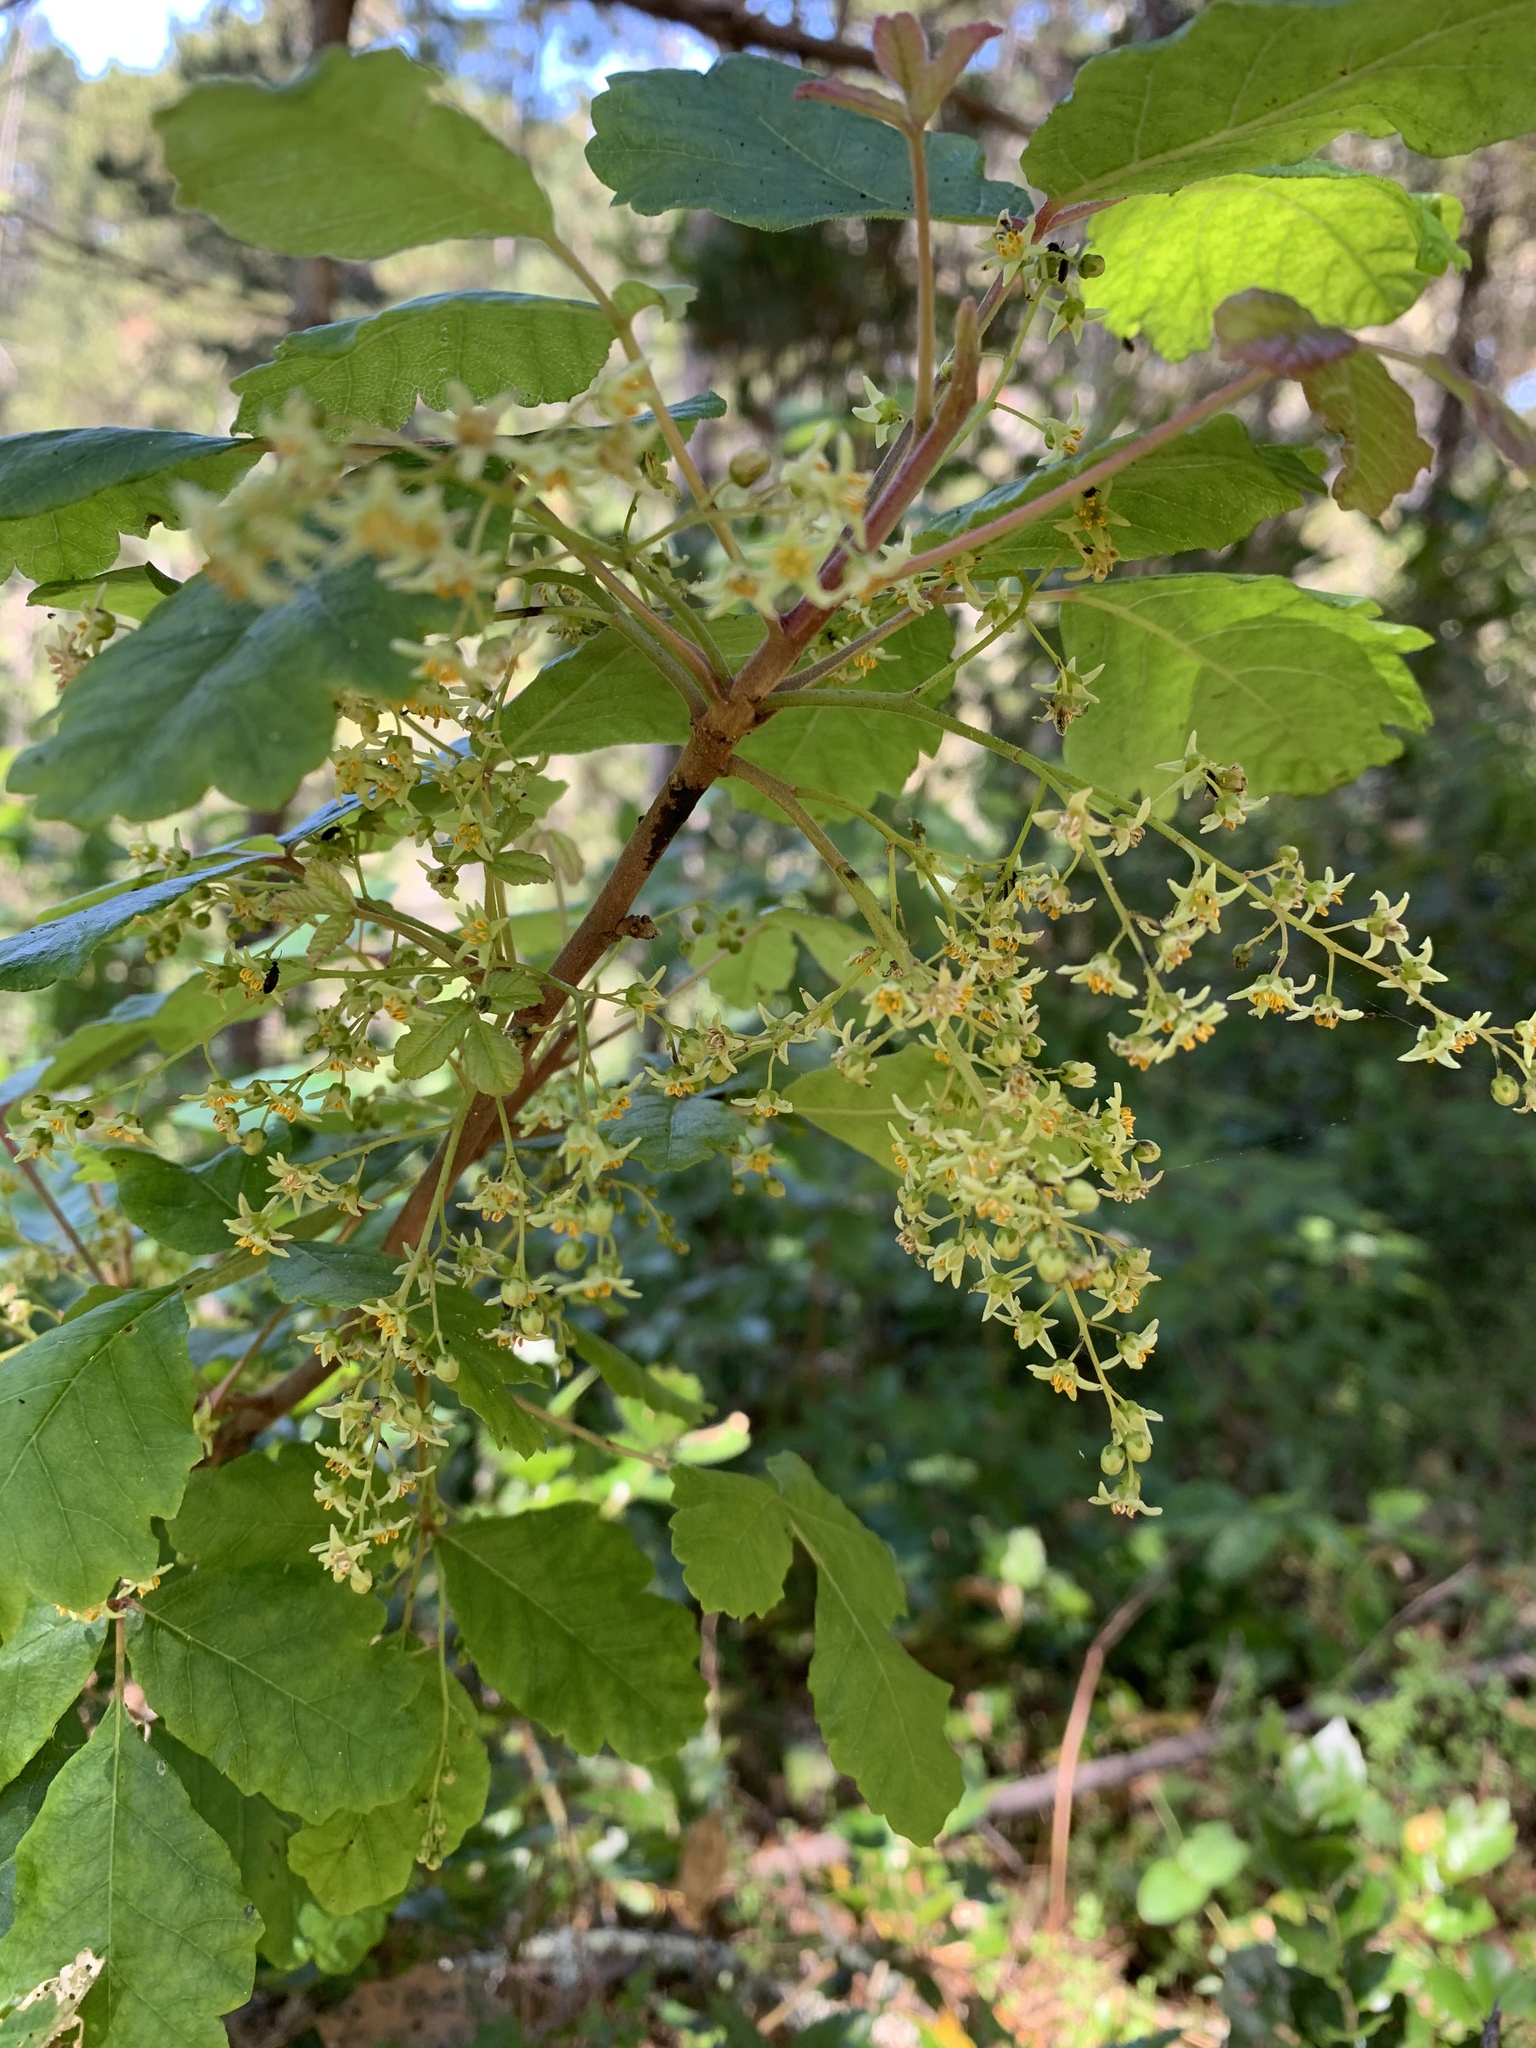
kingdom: Plantae
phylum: Tracheophyta
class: Magnoliopsida
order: Sapindales
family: Anacardiaceae
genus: Toxicodendron
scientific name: Toxicodendron diversilobum
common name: Pacific poison-oak
